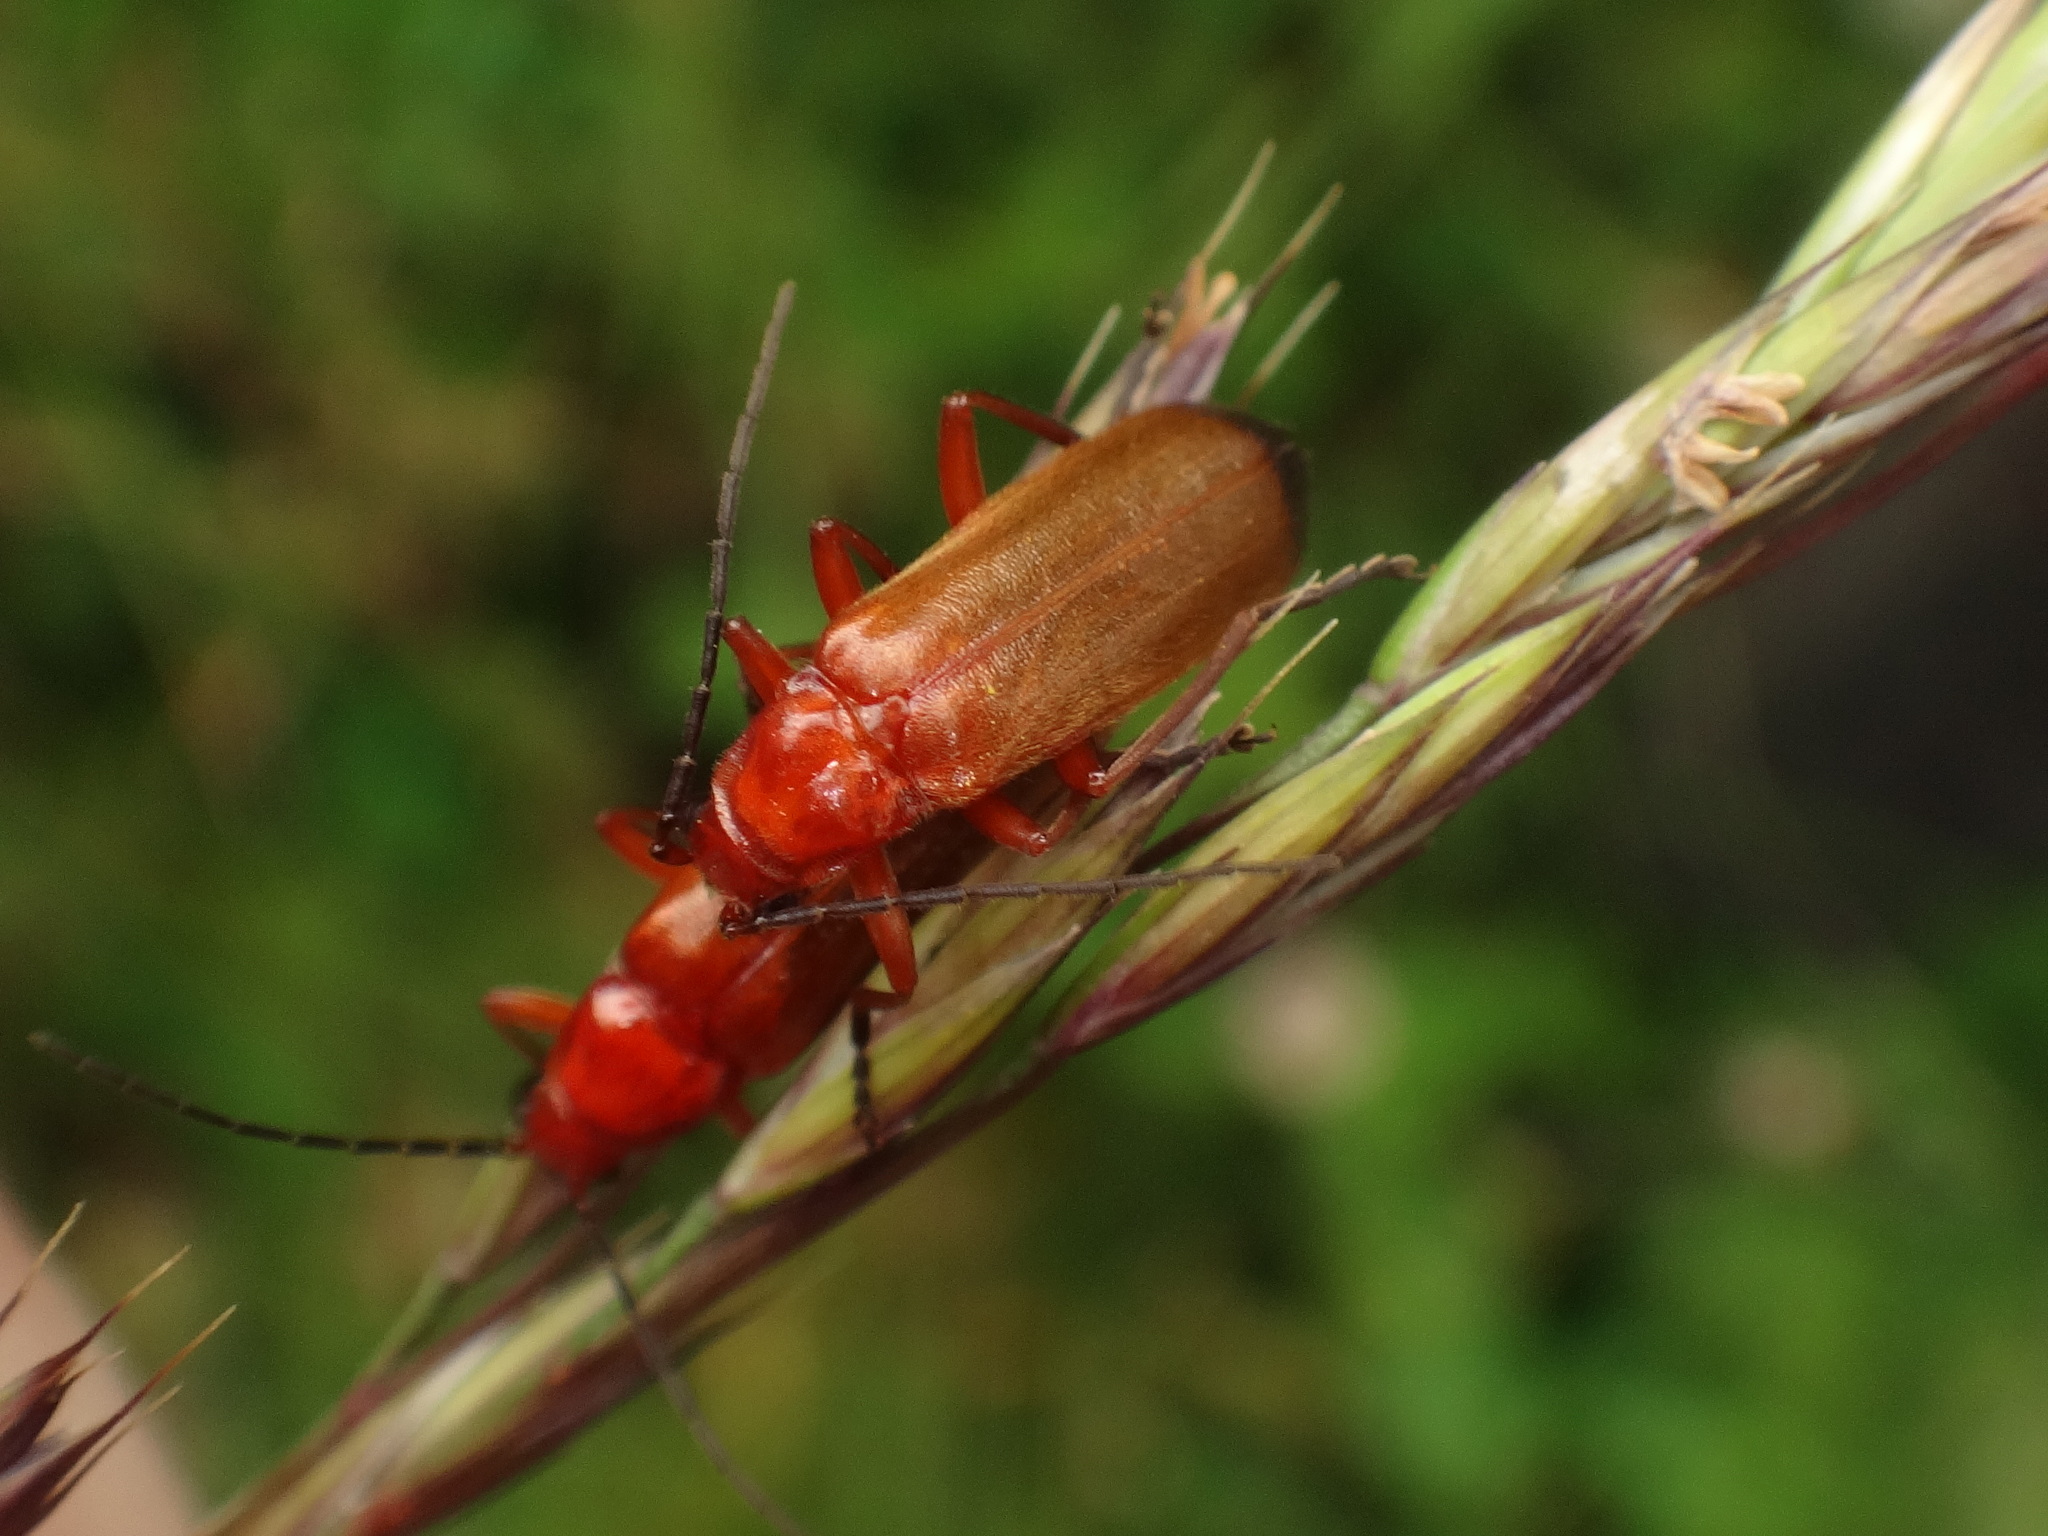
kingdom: Animalia
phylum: Arthropoda
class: Insecta
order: Coleoptera
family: Cantharidae
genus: Rhagonycha
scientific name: Rhagonycha fulva
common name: Common red soldier beetle
